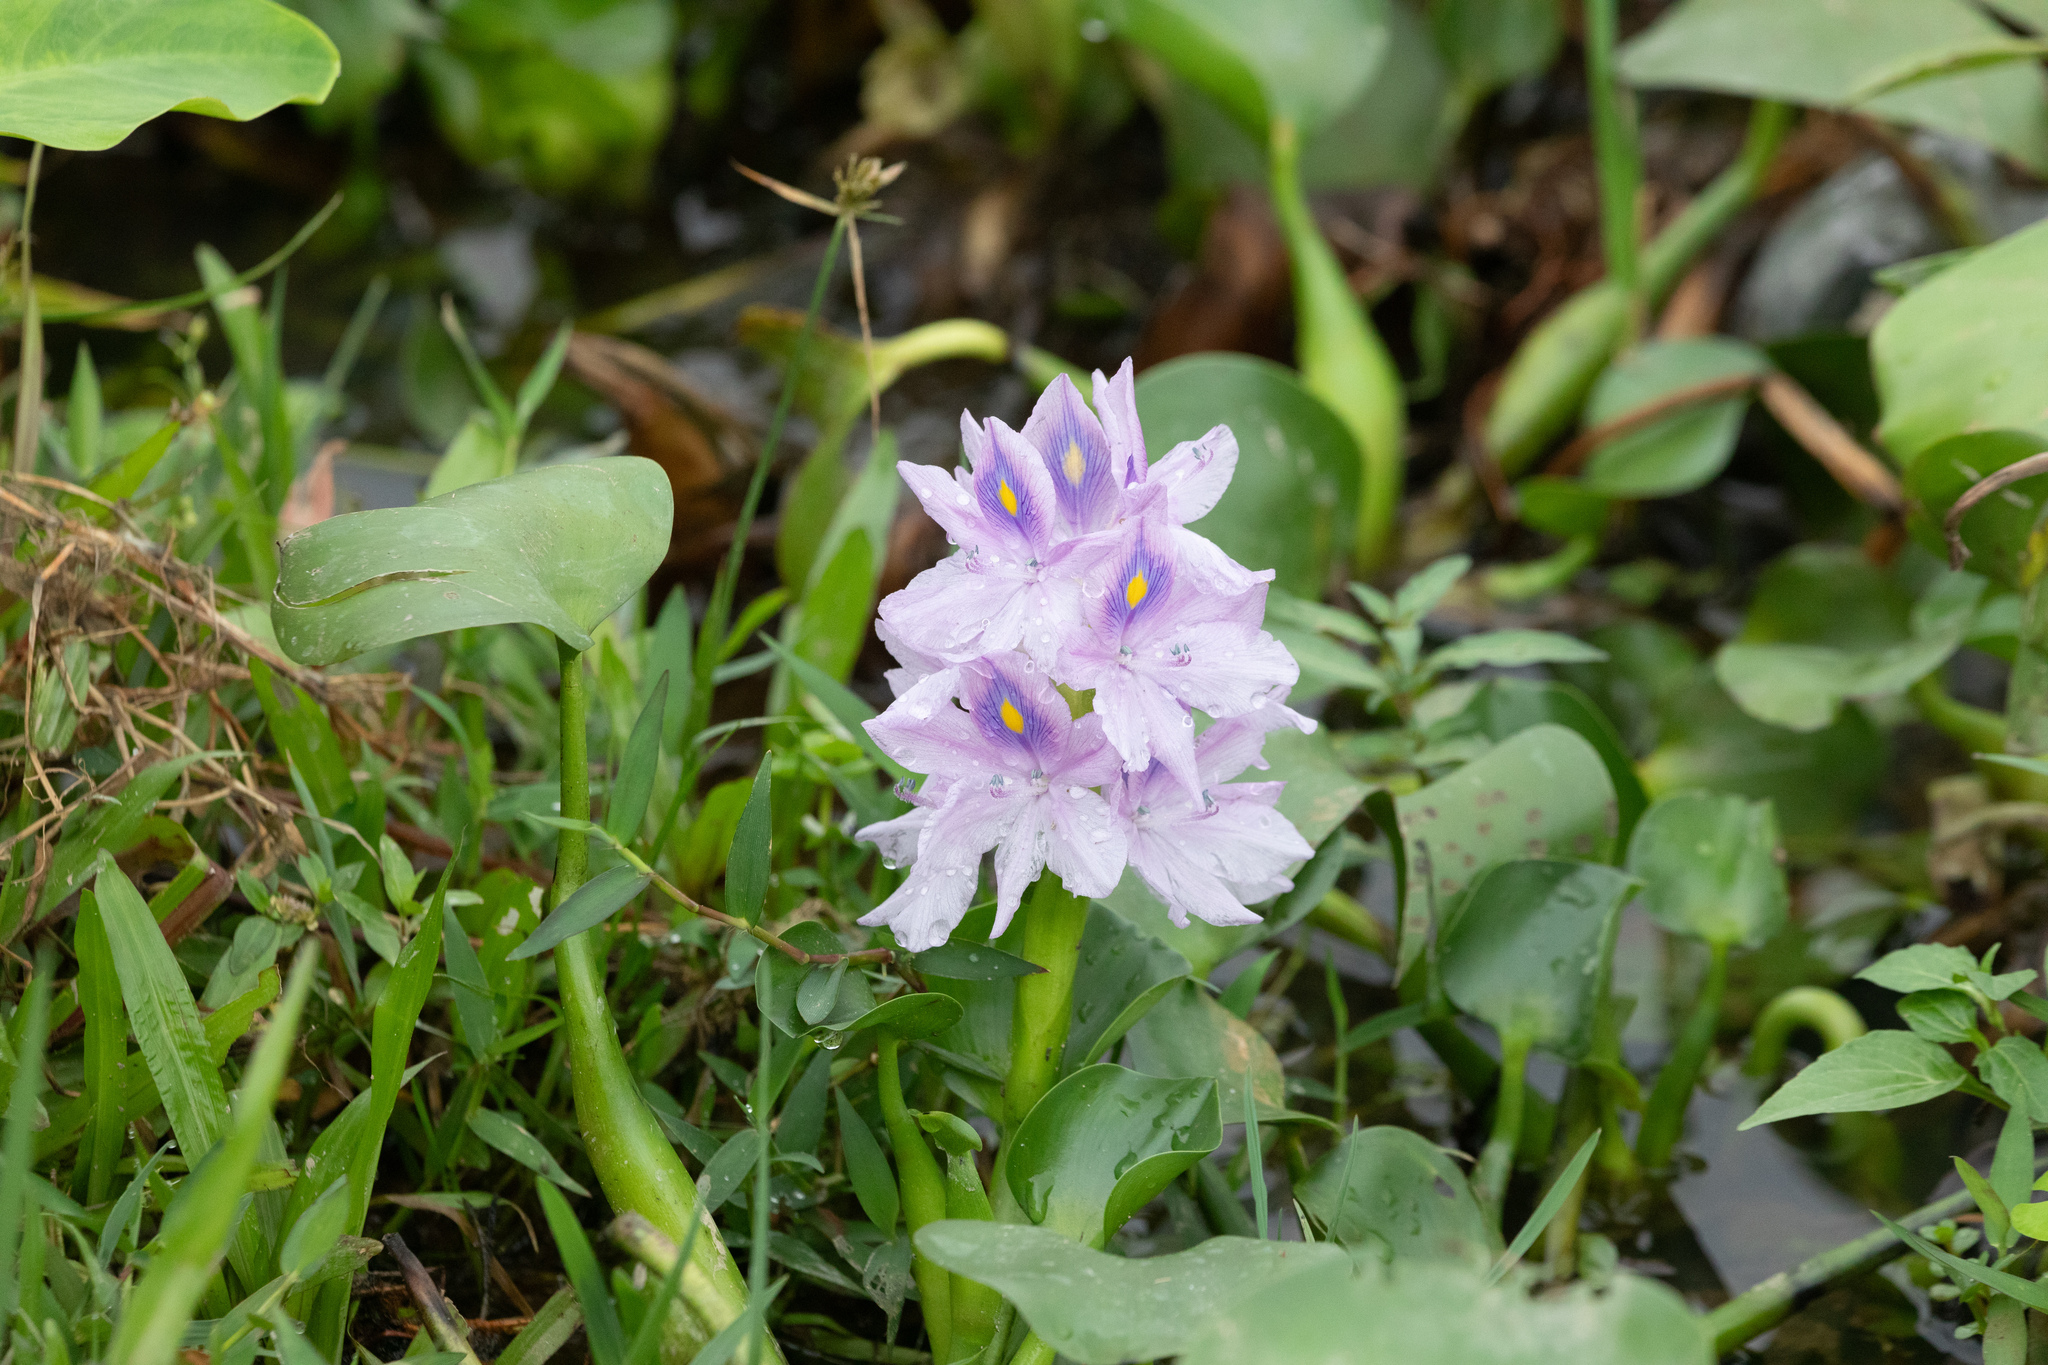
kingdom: Plantae
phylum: Tracheophyta
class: Liliopsida
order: Commelinales
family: Pontederiaceae
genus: Pontederia
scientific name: Pontederia crassipes
